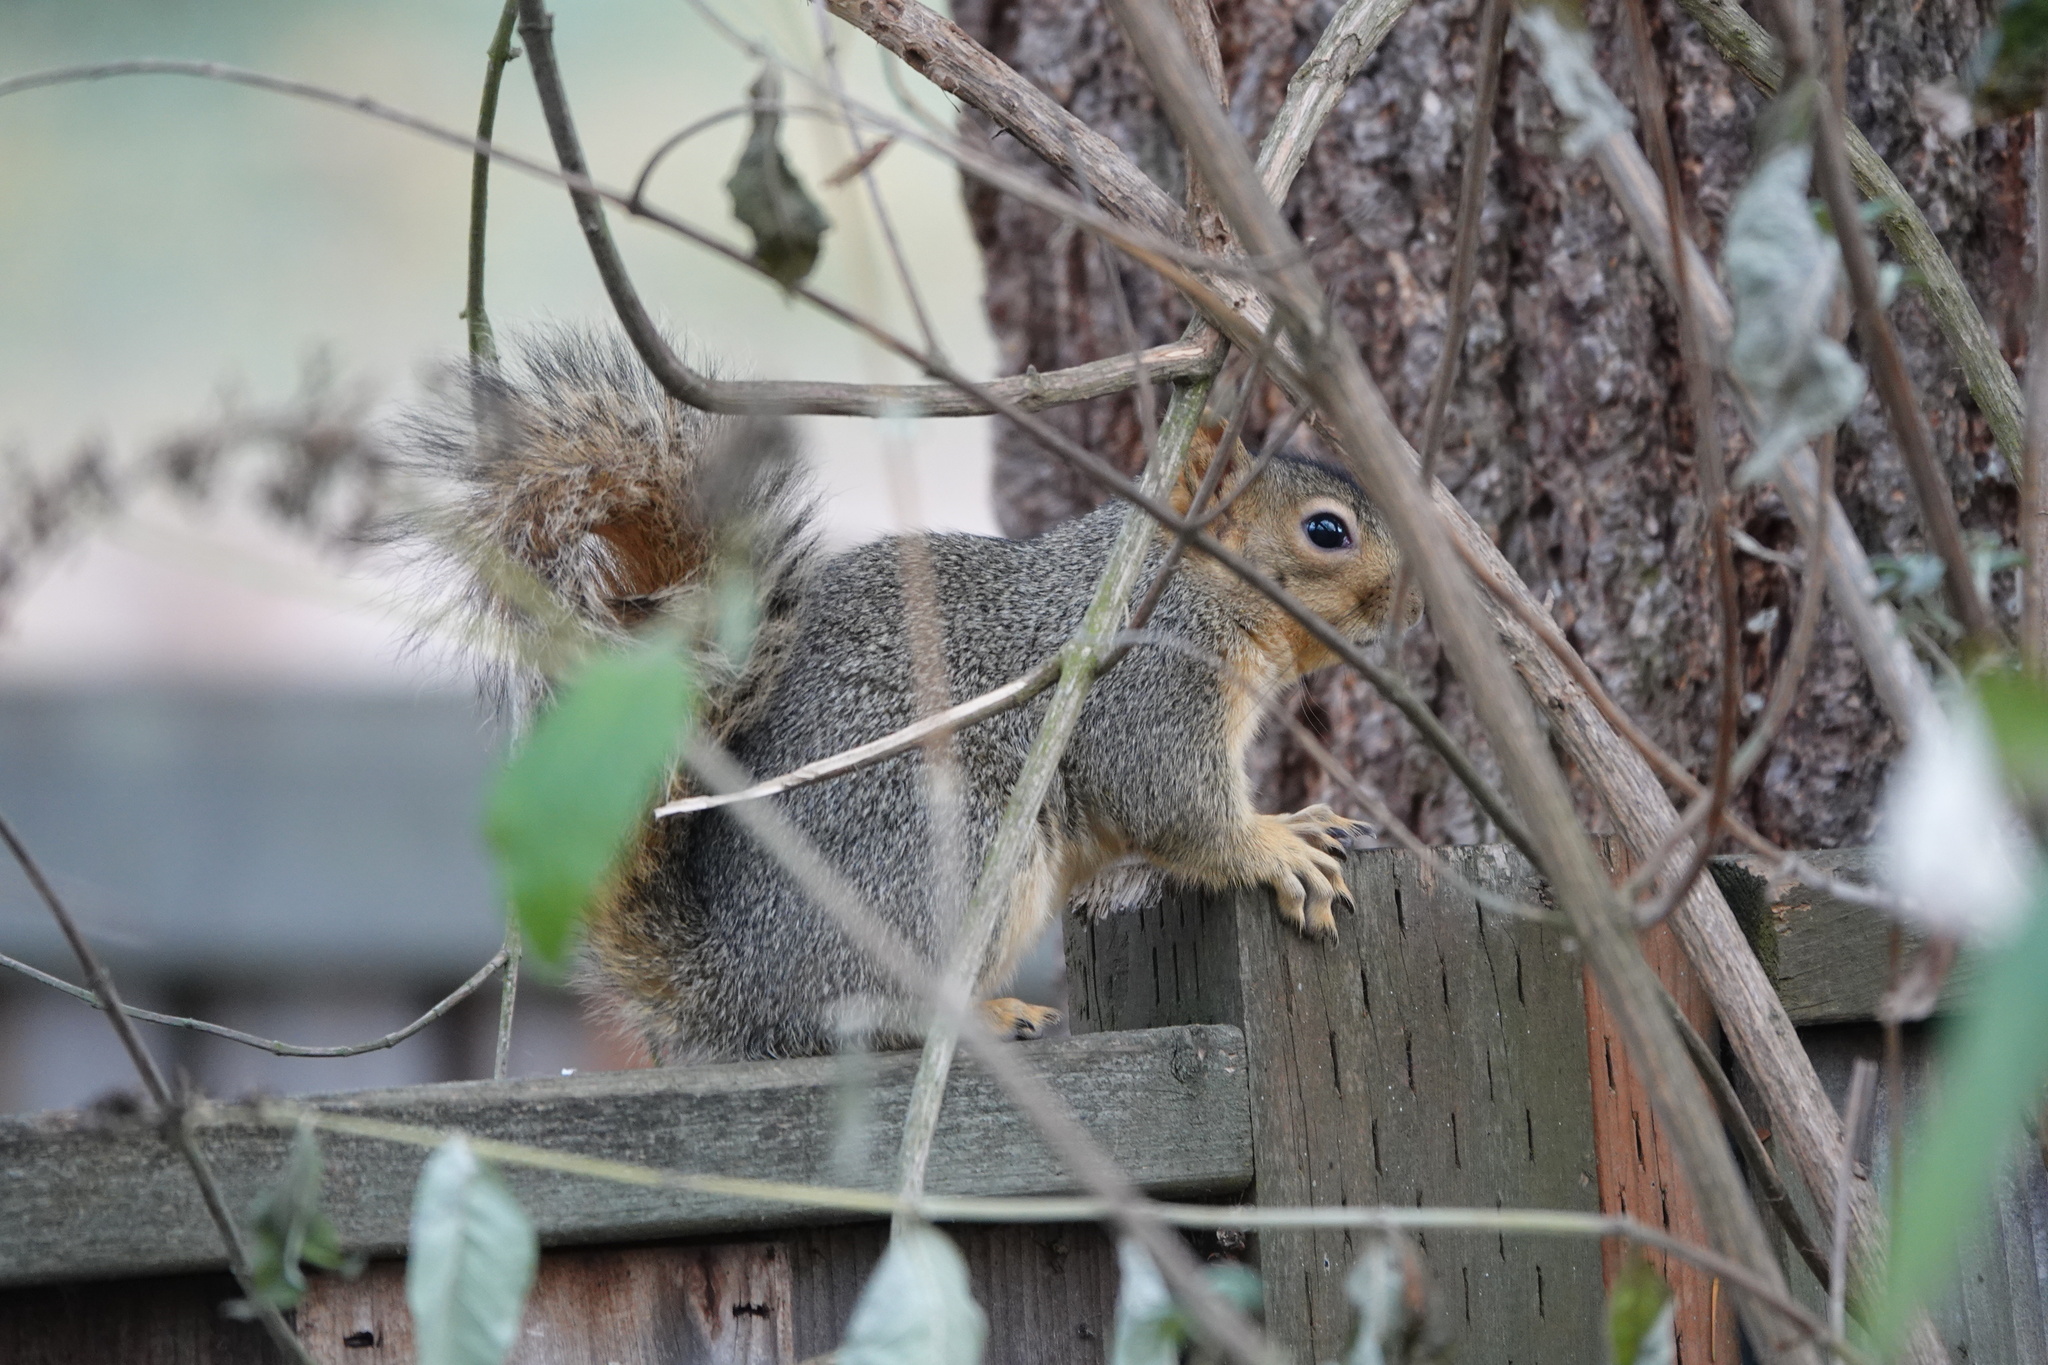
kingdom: Animalia
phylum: Chordata
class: Mammalia
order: Rodentia
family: Sciuridae
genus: Sciurus
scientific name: Sciurus niger
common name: Fox squirrel
